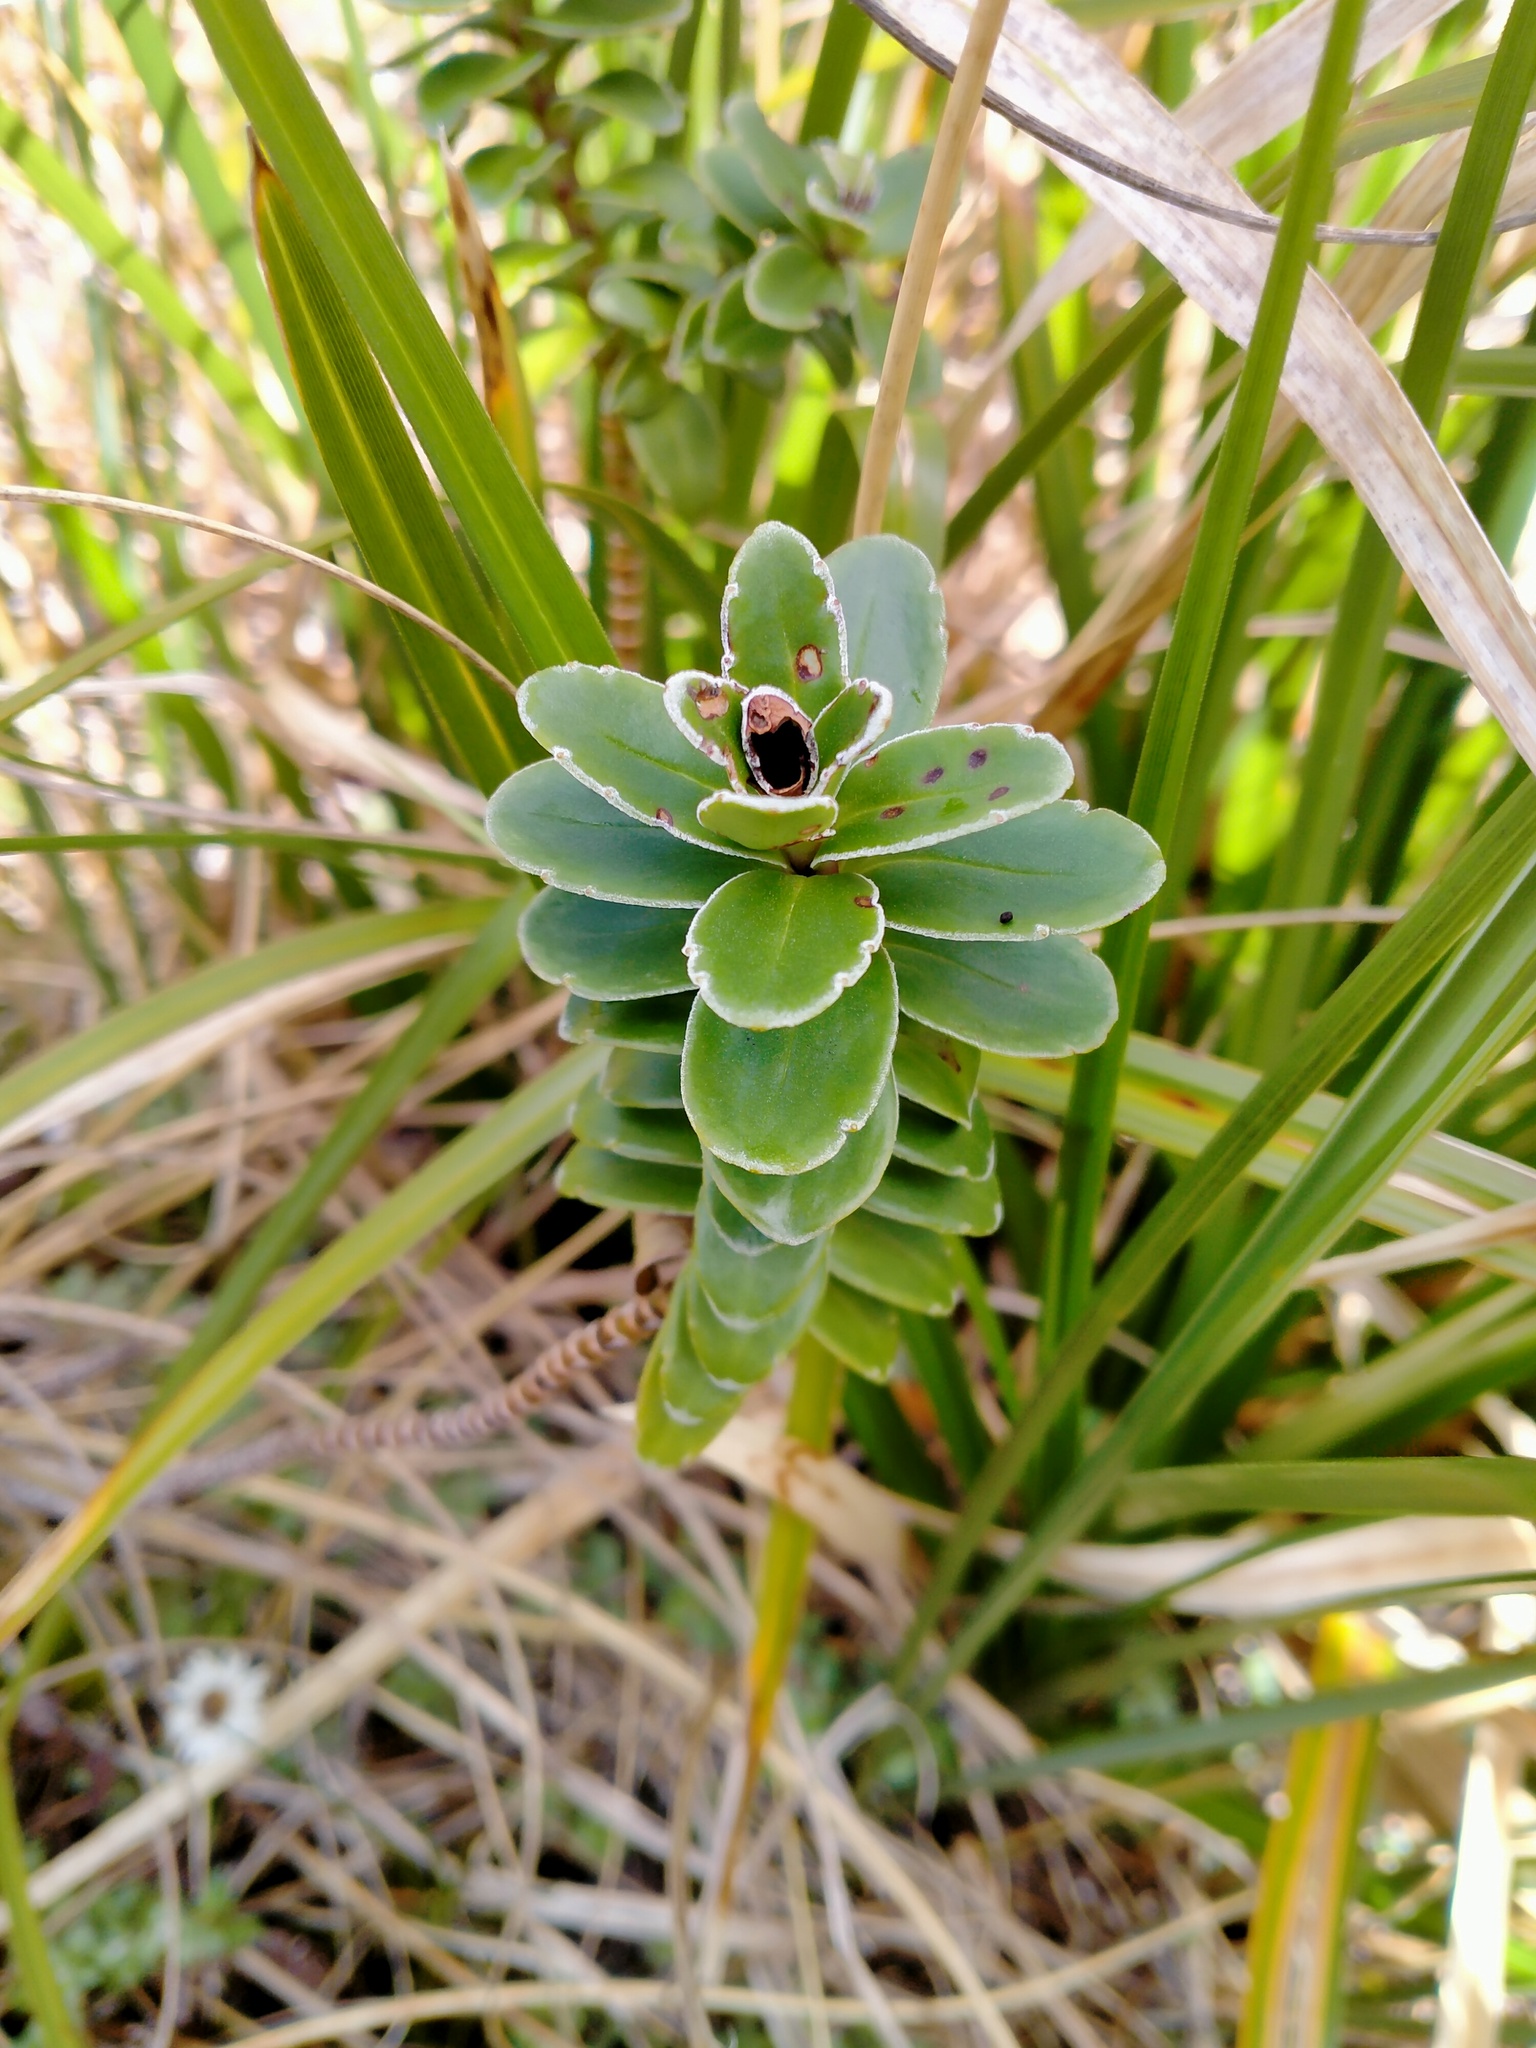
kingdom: Plantae
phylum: Tracheophyta
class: Magnoliopsida
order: Lamiales
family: Plantaginaceae
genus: Veronica
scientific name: Veronica benthamii
